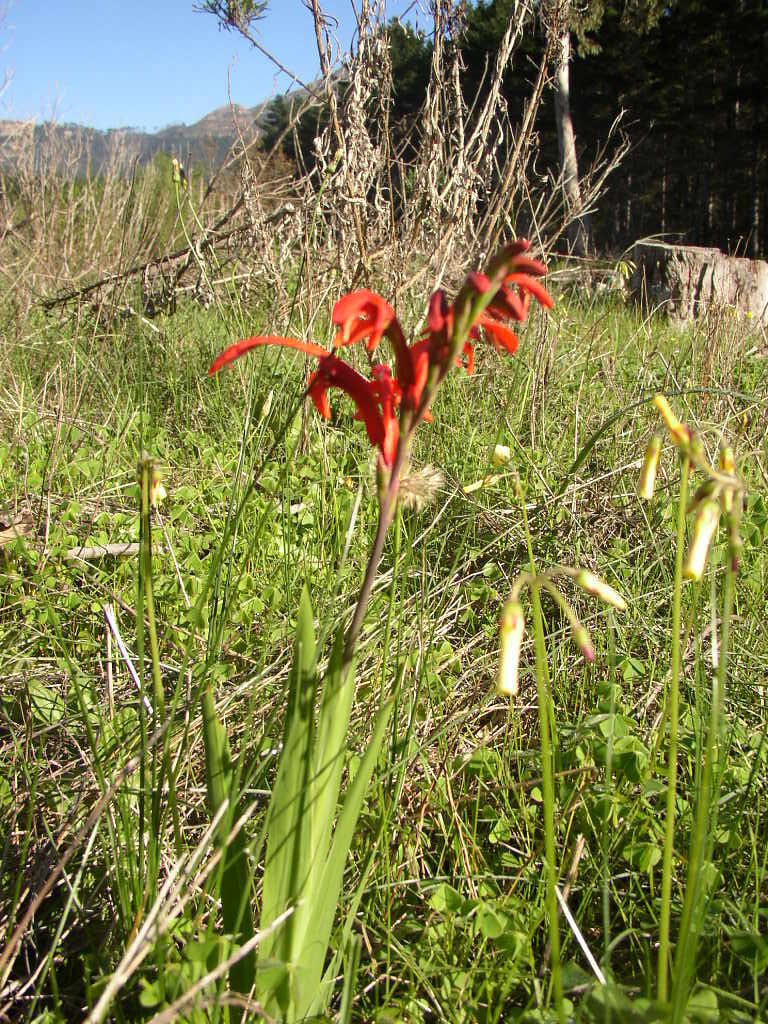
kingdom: Plantae
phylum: Tracheophyta
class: Liliopsida
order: Asparagales
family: Iridaceae
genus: Chasmanthe
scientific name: Chasmanthe aethiopica
